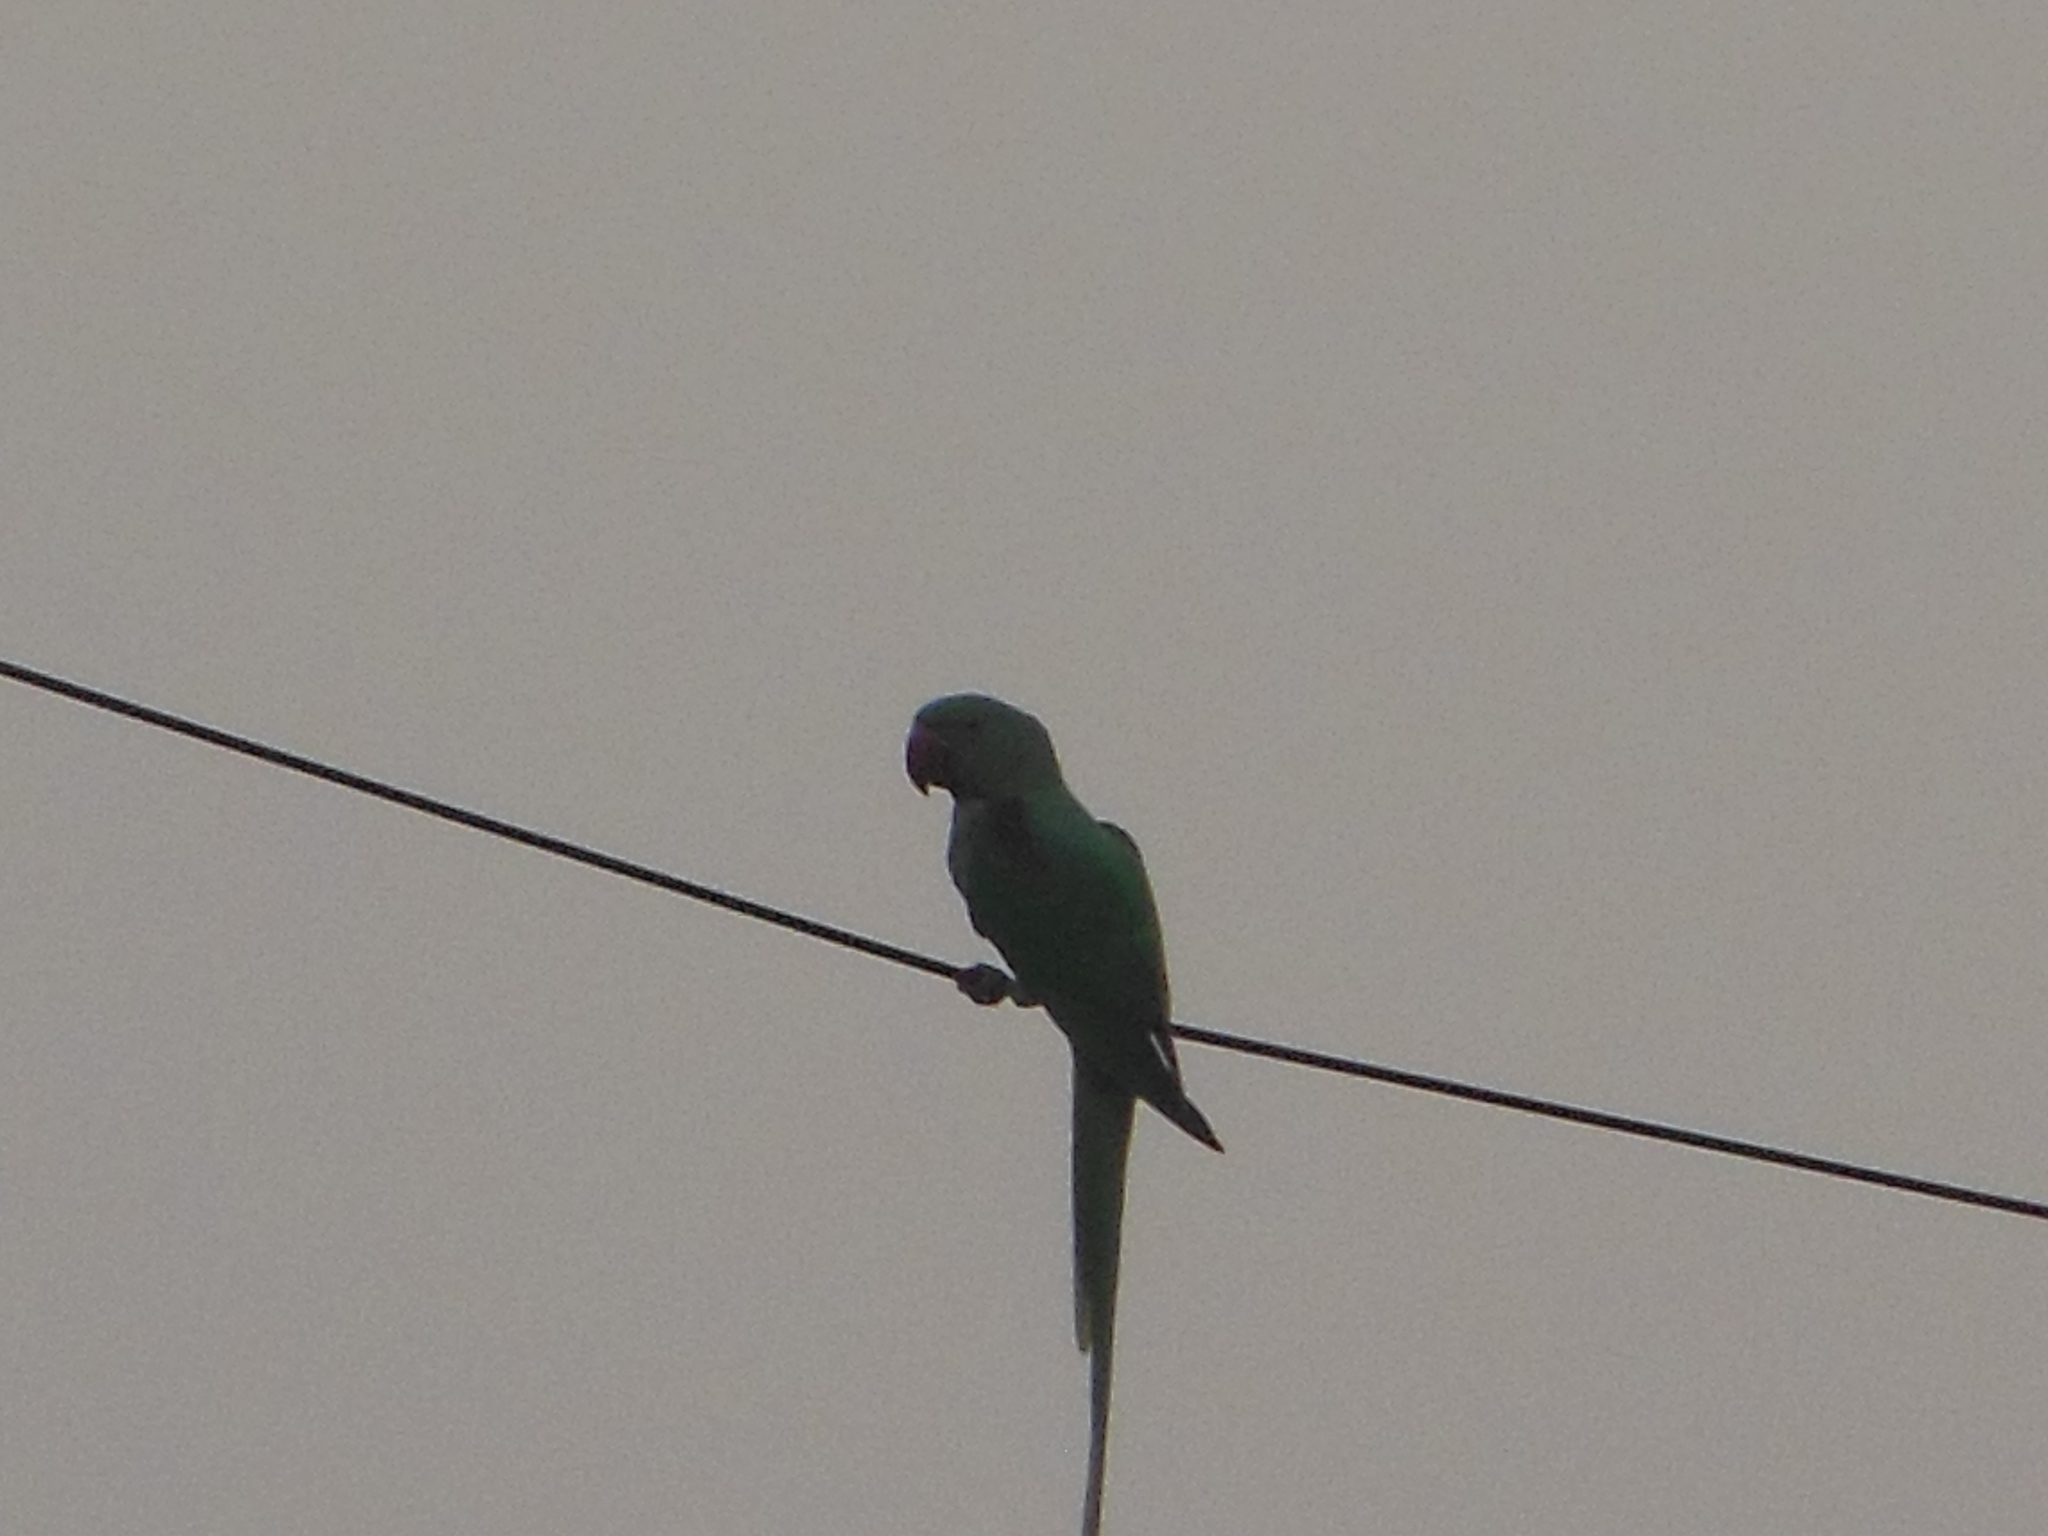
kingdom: Animalia
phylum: Chordata
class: Aves
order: Psittaciformes
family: Psittacidae
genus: Psittacula
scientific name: Psittacula eupatria
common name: Alexandrine parakeet
